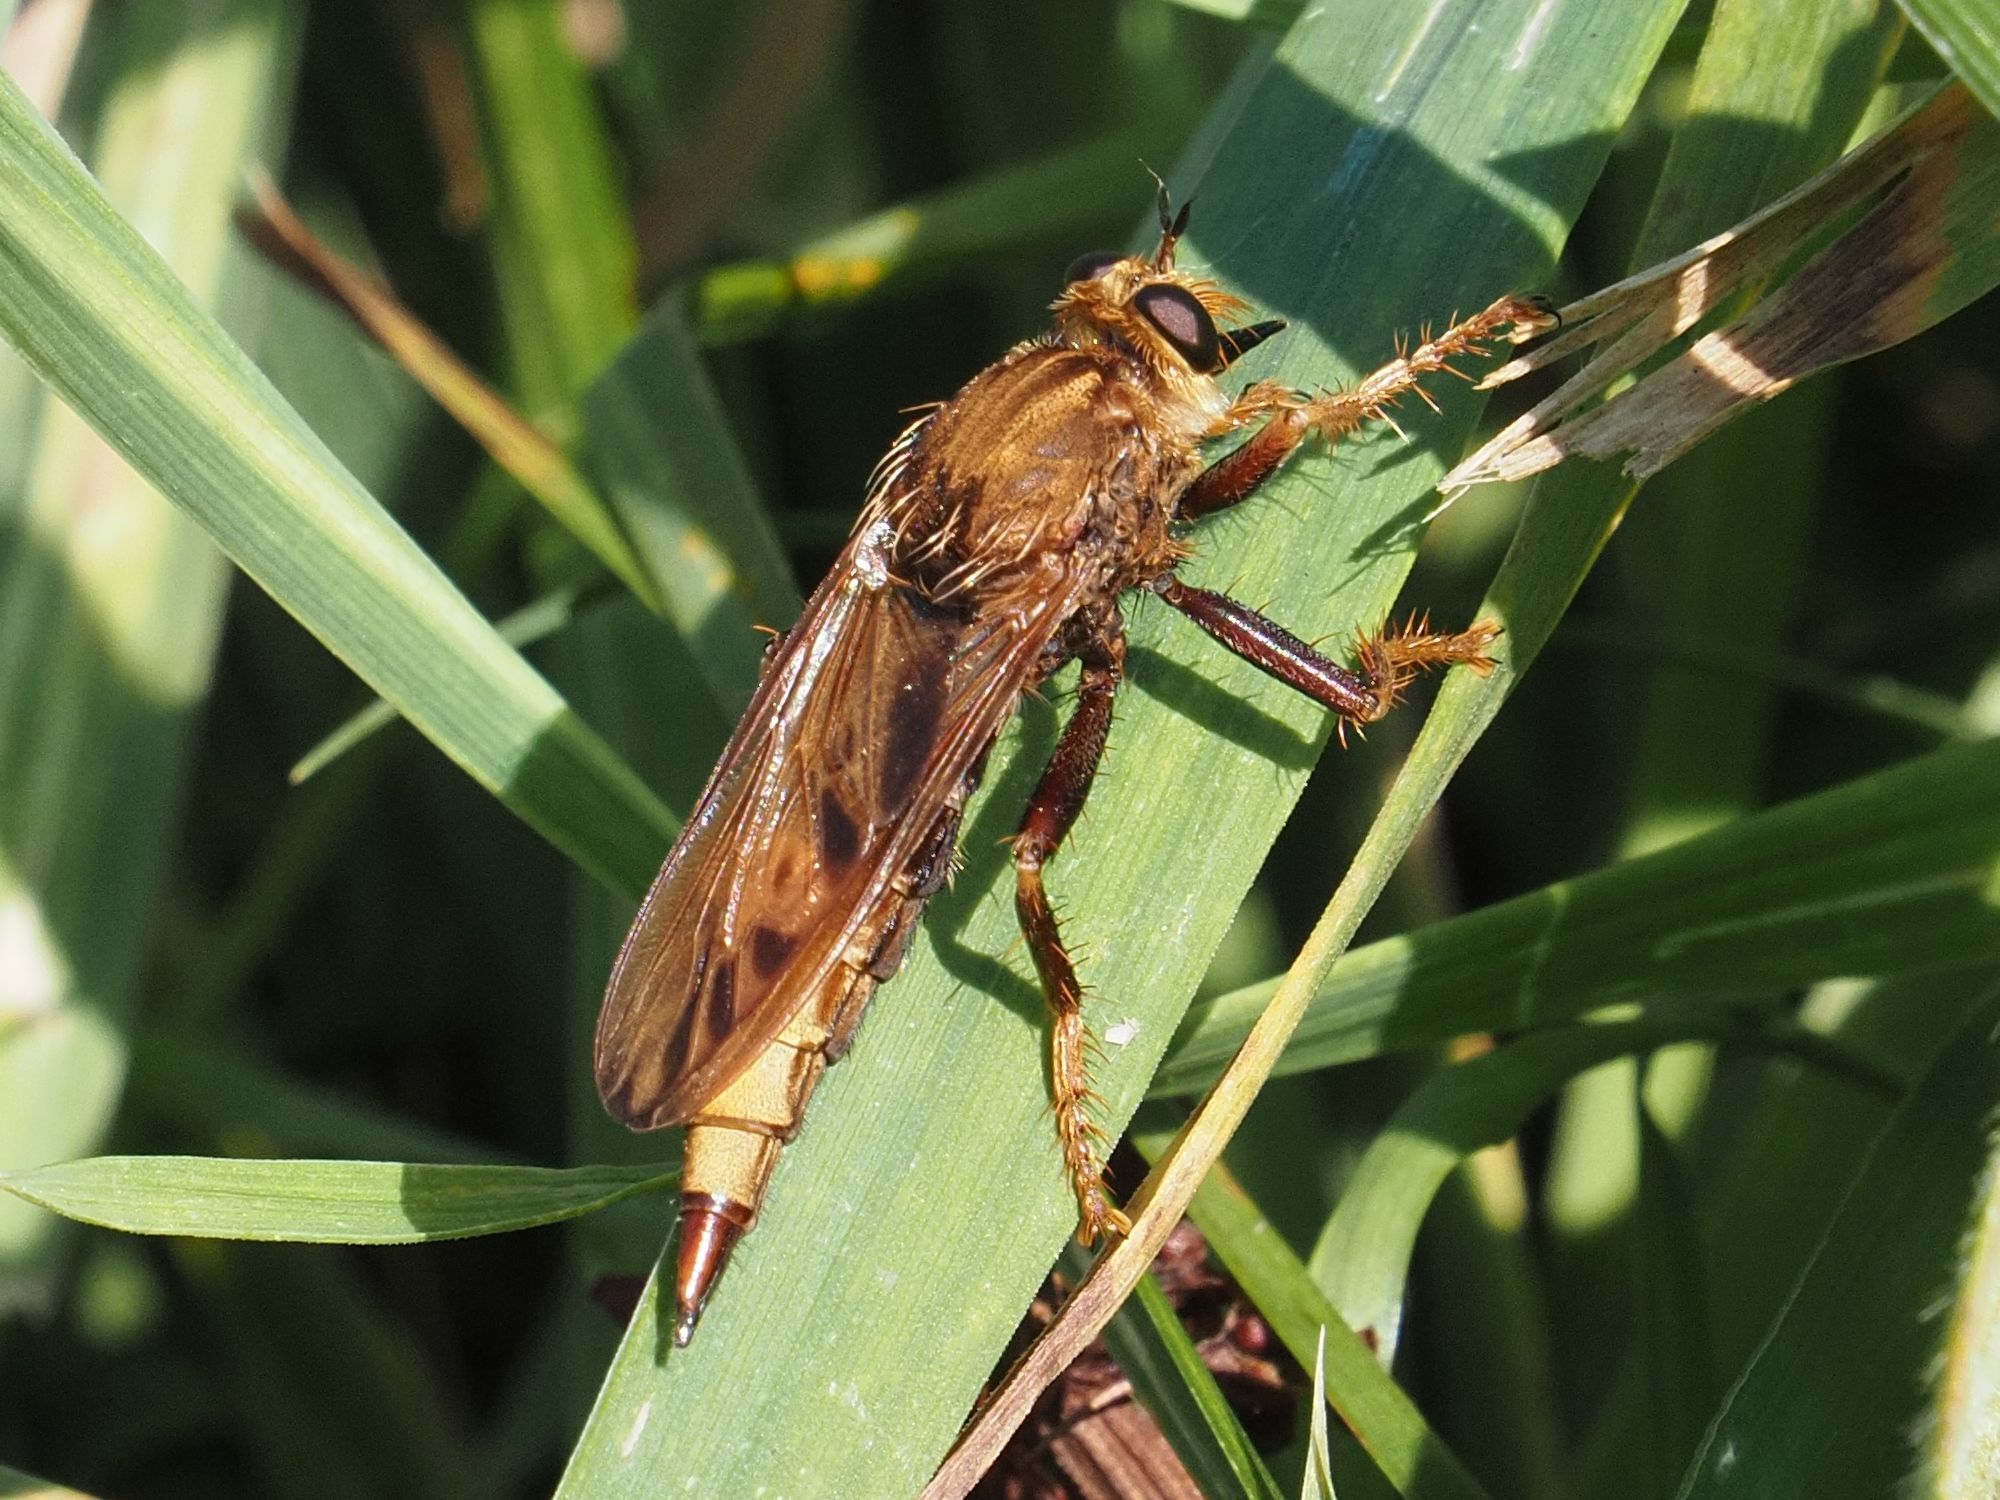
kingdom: Animalia
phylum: Arthropoda
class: Insecta
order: Diptera
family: Asilidae
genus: Asilus
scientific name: Asilus crabroniformis
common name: Hornet robberfly
